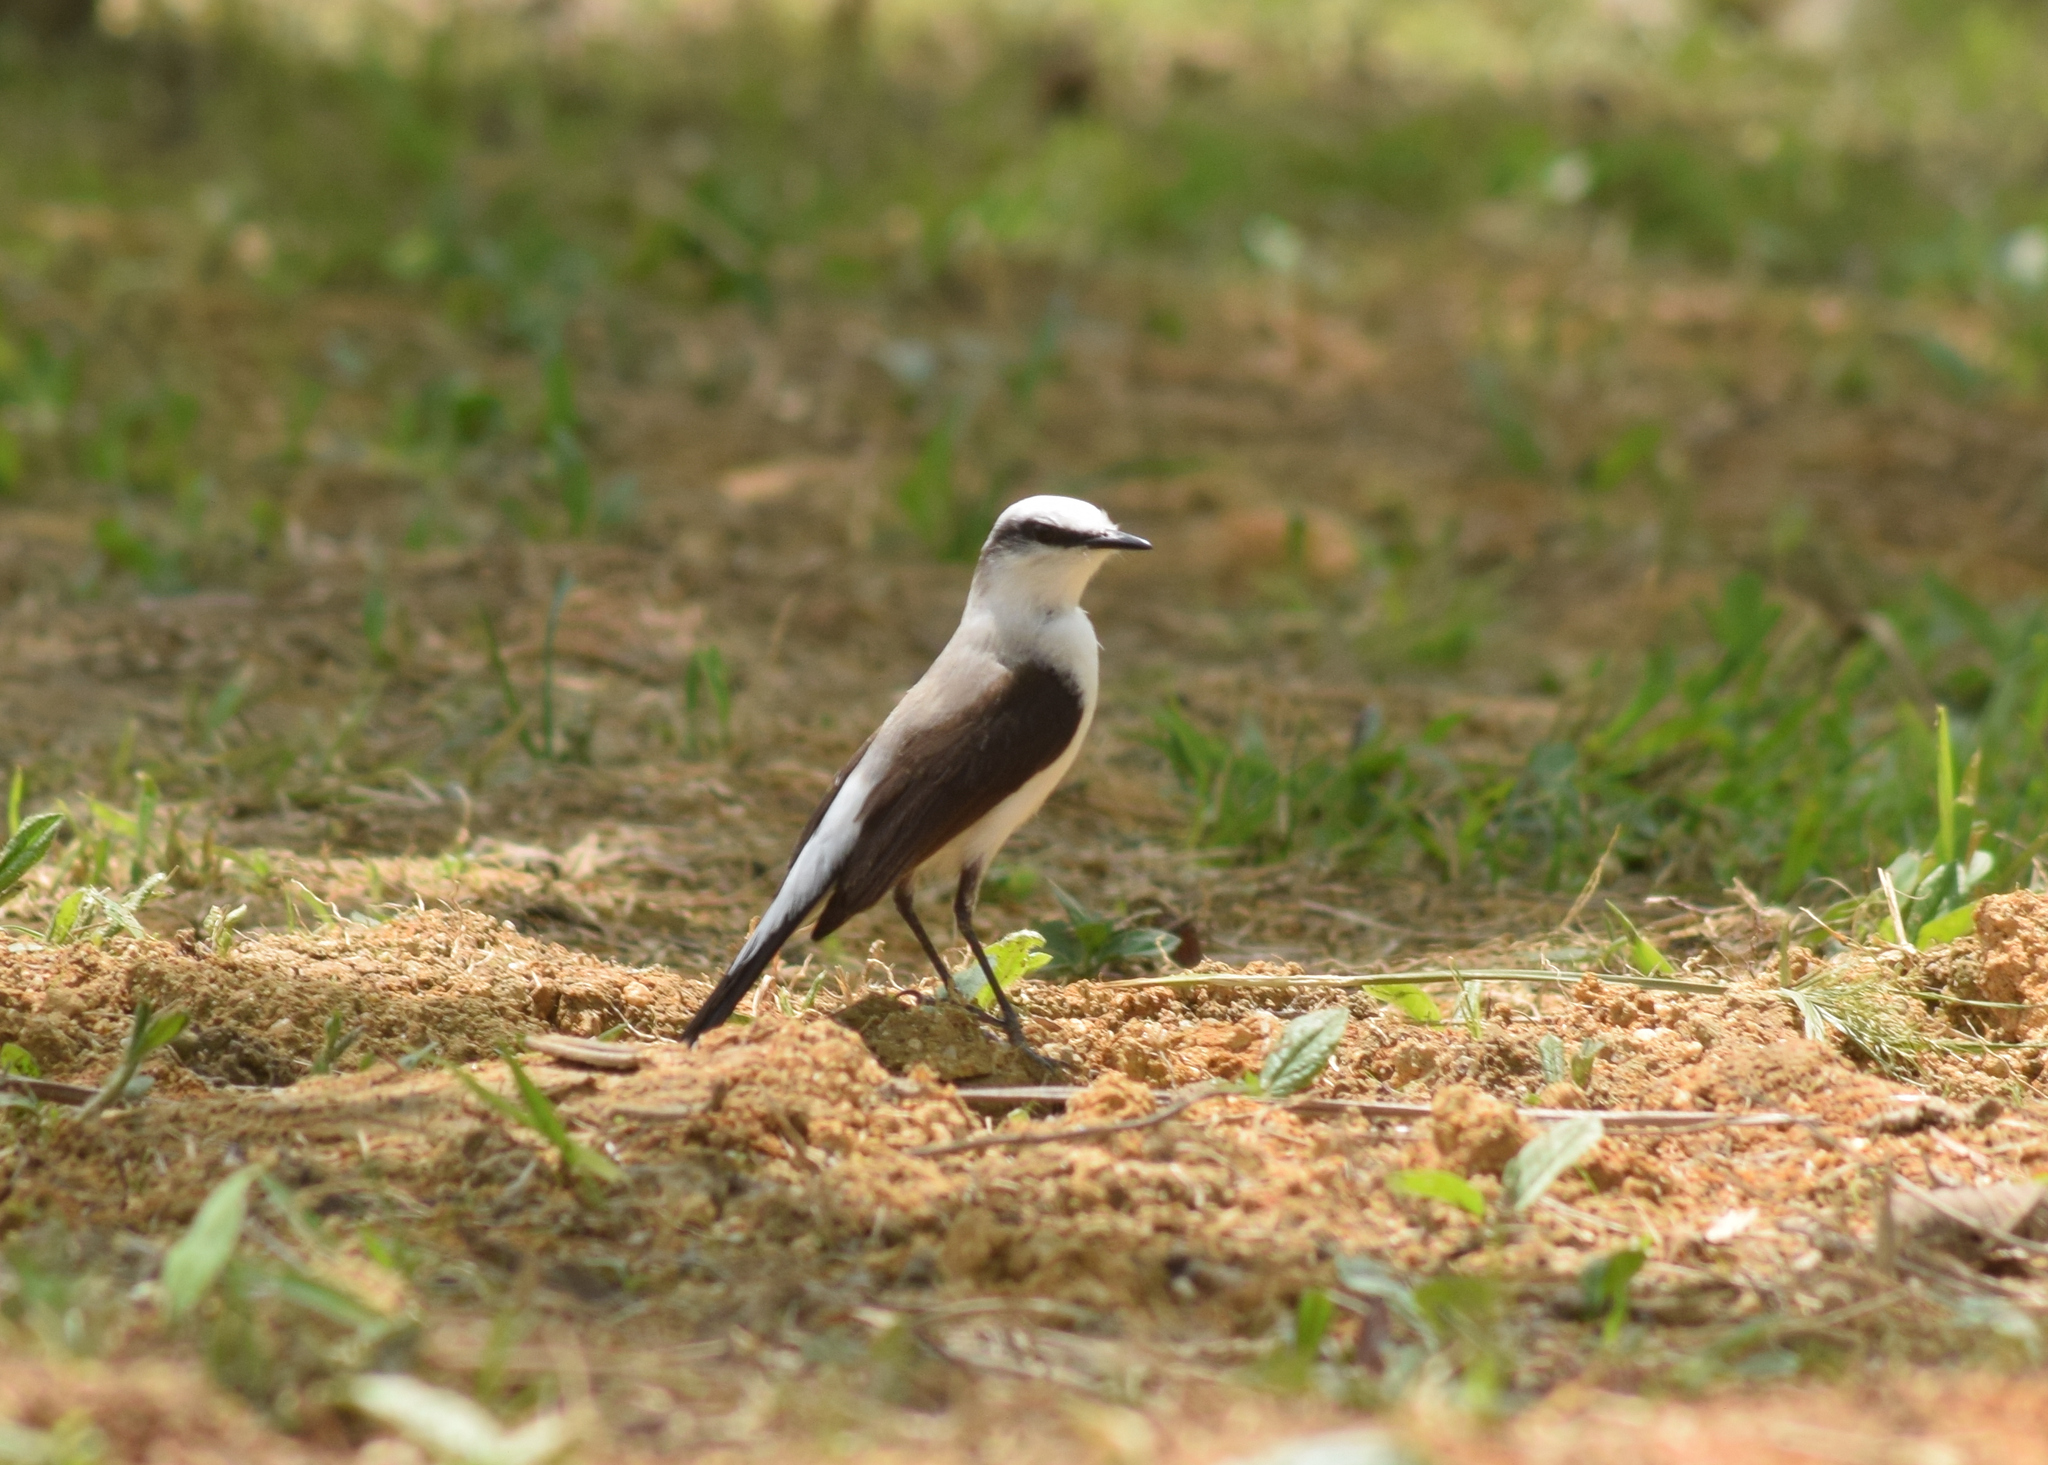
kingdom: Animalia
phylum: Chordata
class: Aves
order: Passeriformes
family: Tyrannidae
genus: Fluvicola
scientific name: Fluvicola nengeta
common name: Masked water tyrant
